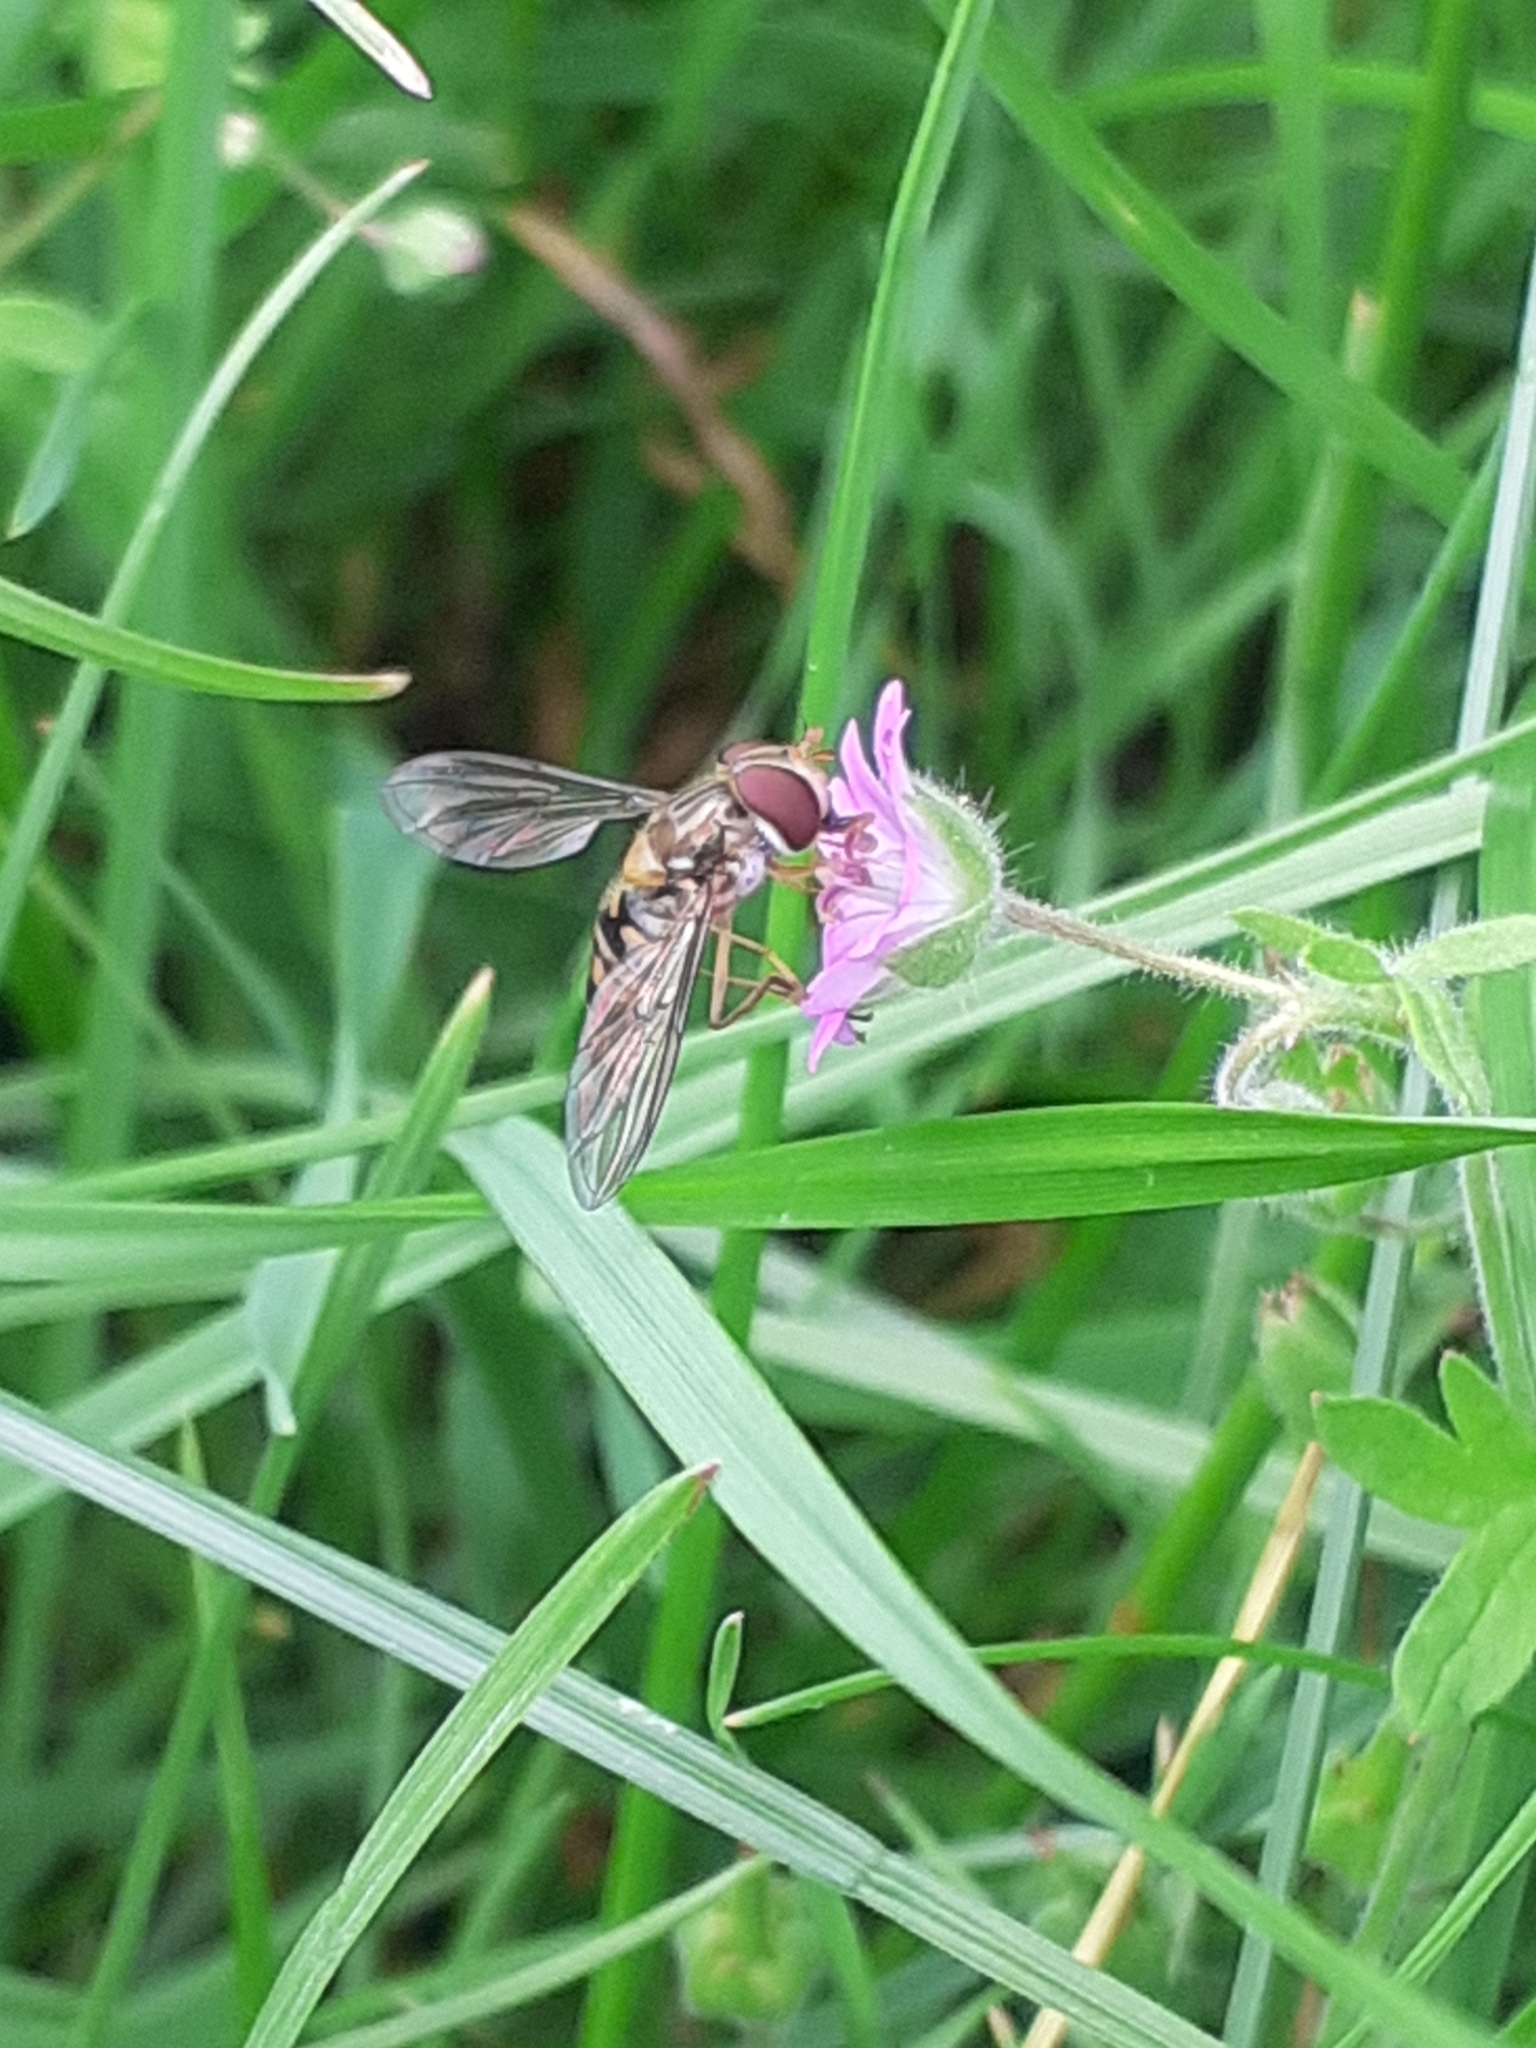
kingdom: Animalia
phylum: Arthropoda
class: Insecta
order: Diptera
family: Syrphidae
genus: Episyrphus
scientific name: Episyrphus balteatus
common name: Marmalade hoverfly
